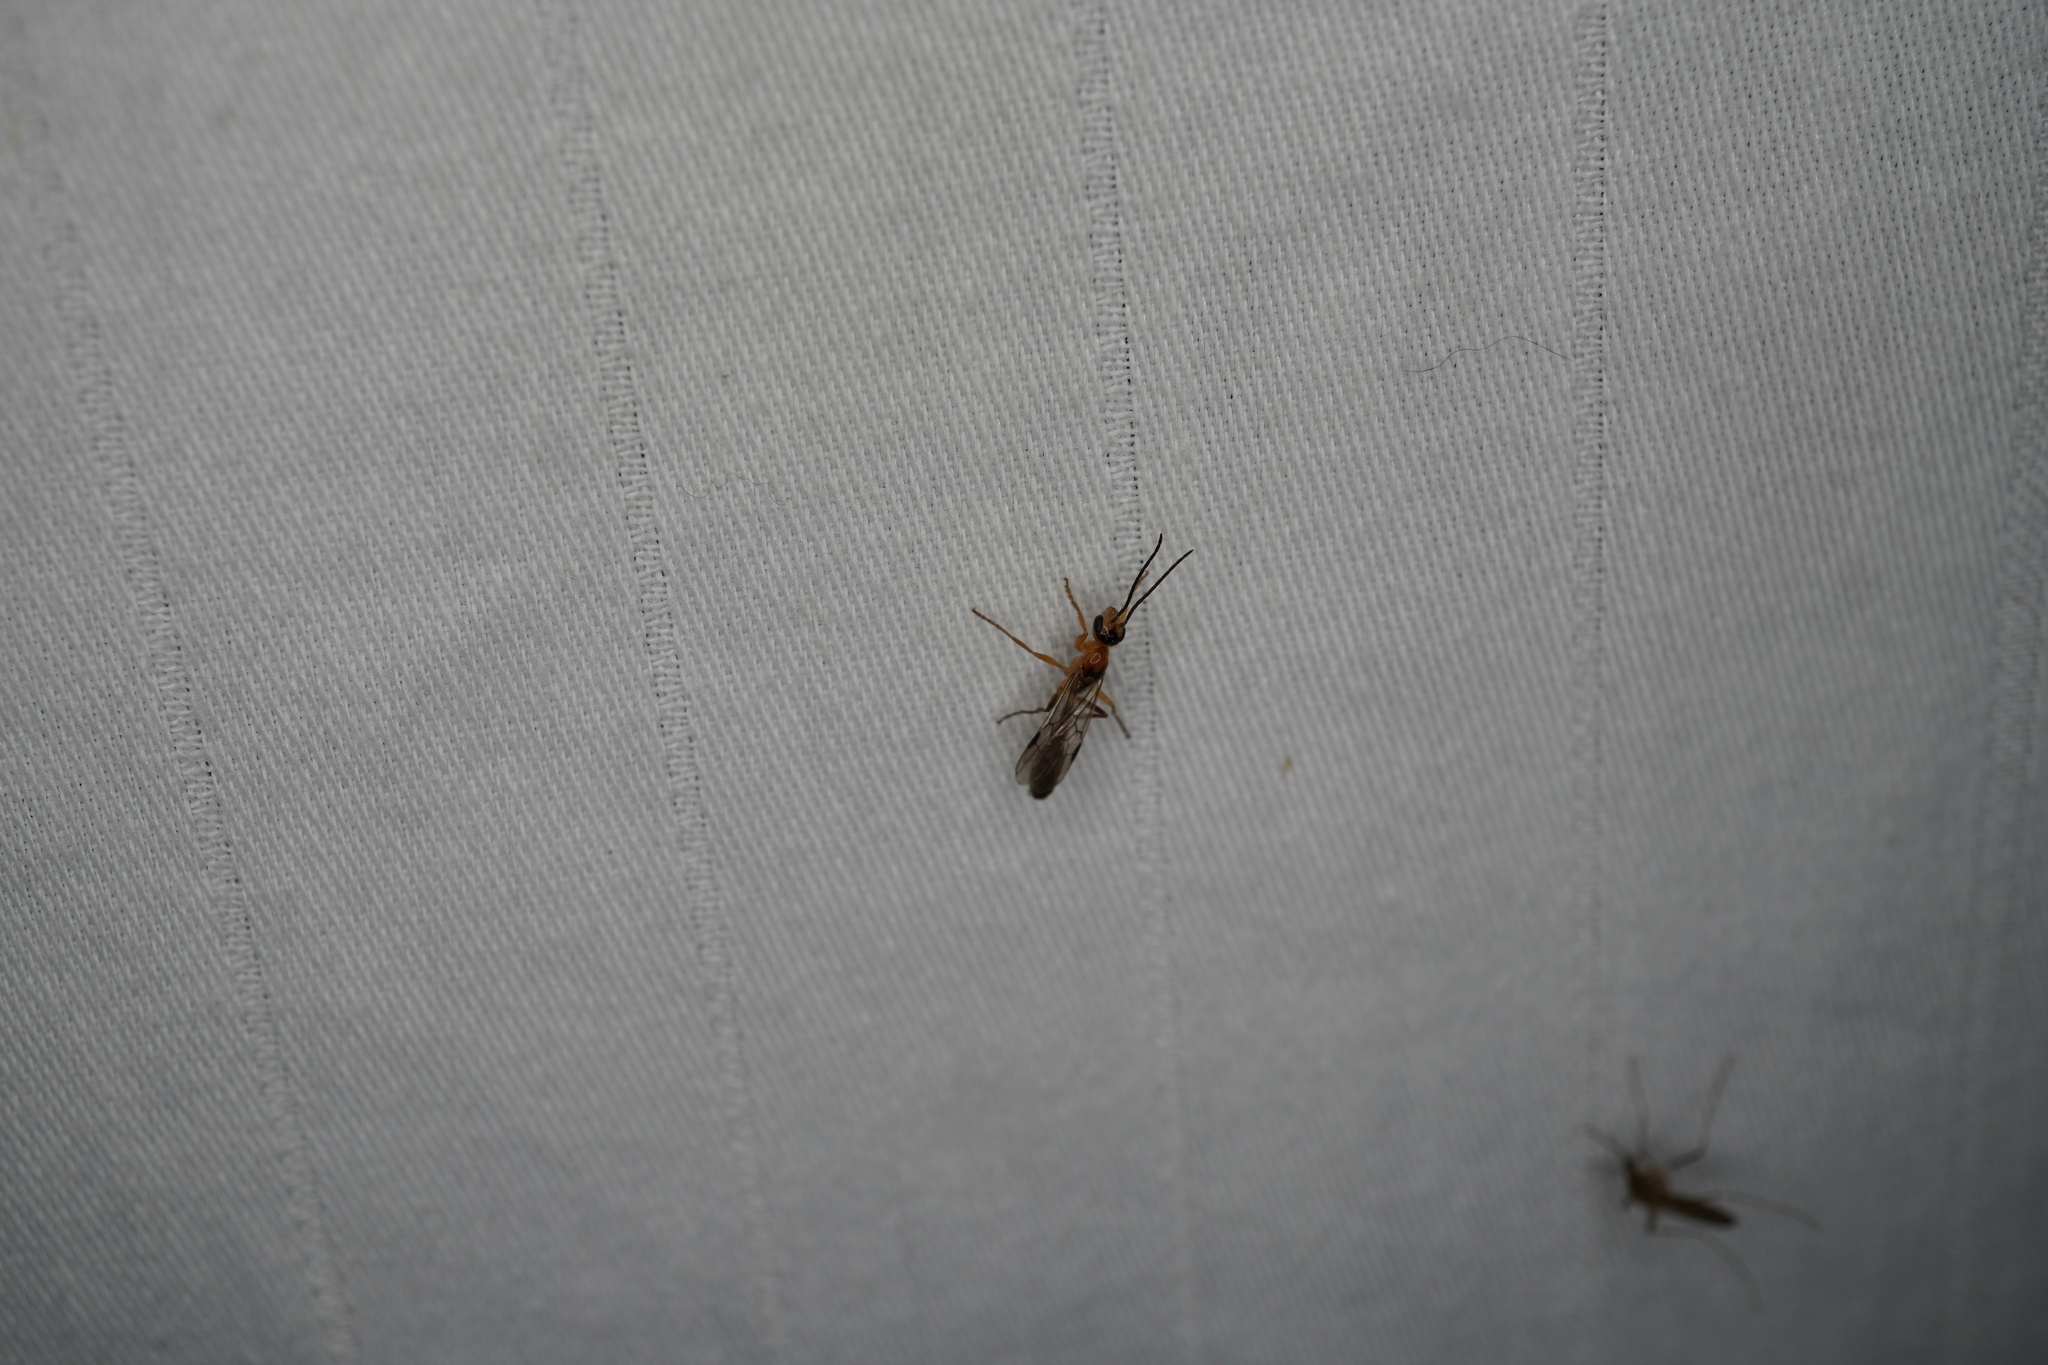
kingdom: Animalia
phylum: Arthropoda
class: Insecta
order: Hymenoptera
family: Formicidae
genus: Pseudomyrmex
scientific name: Pseudomyrmex gracilis
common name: Graceful twig ant
